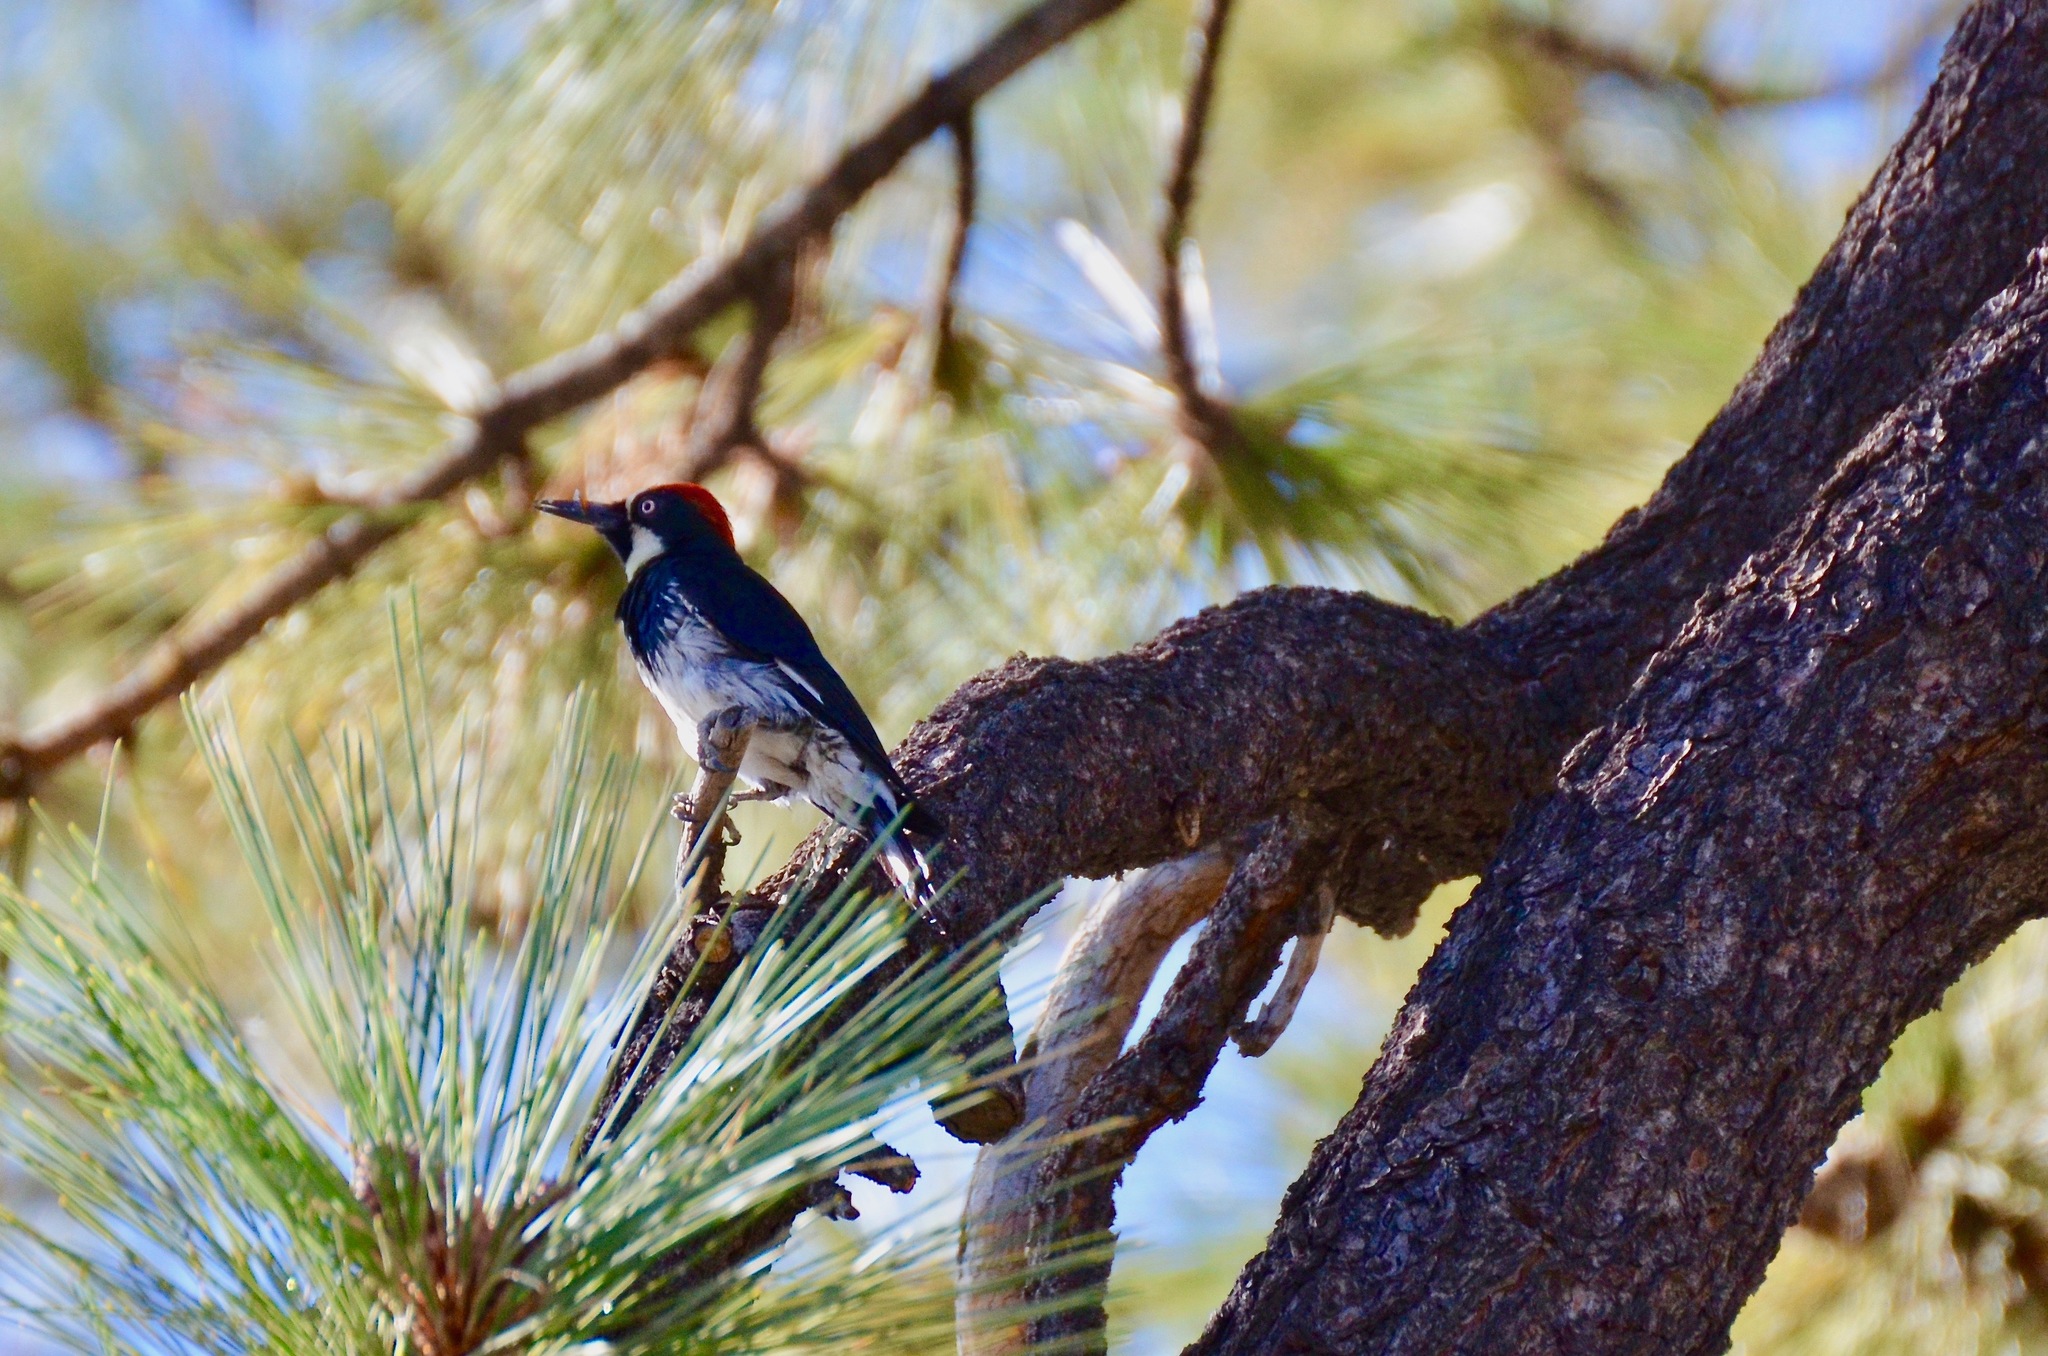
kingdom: Animalia
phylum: Chordata
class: Aves
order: Piciformes
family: Picidae
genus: Melanerpes
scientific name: Melanerpes formicivorus
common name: Acorn woodpecker
